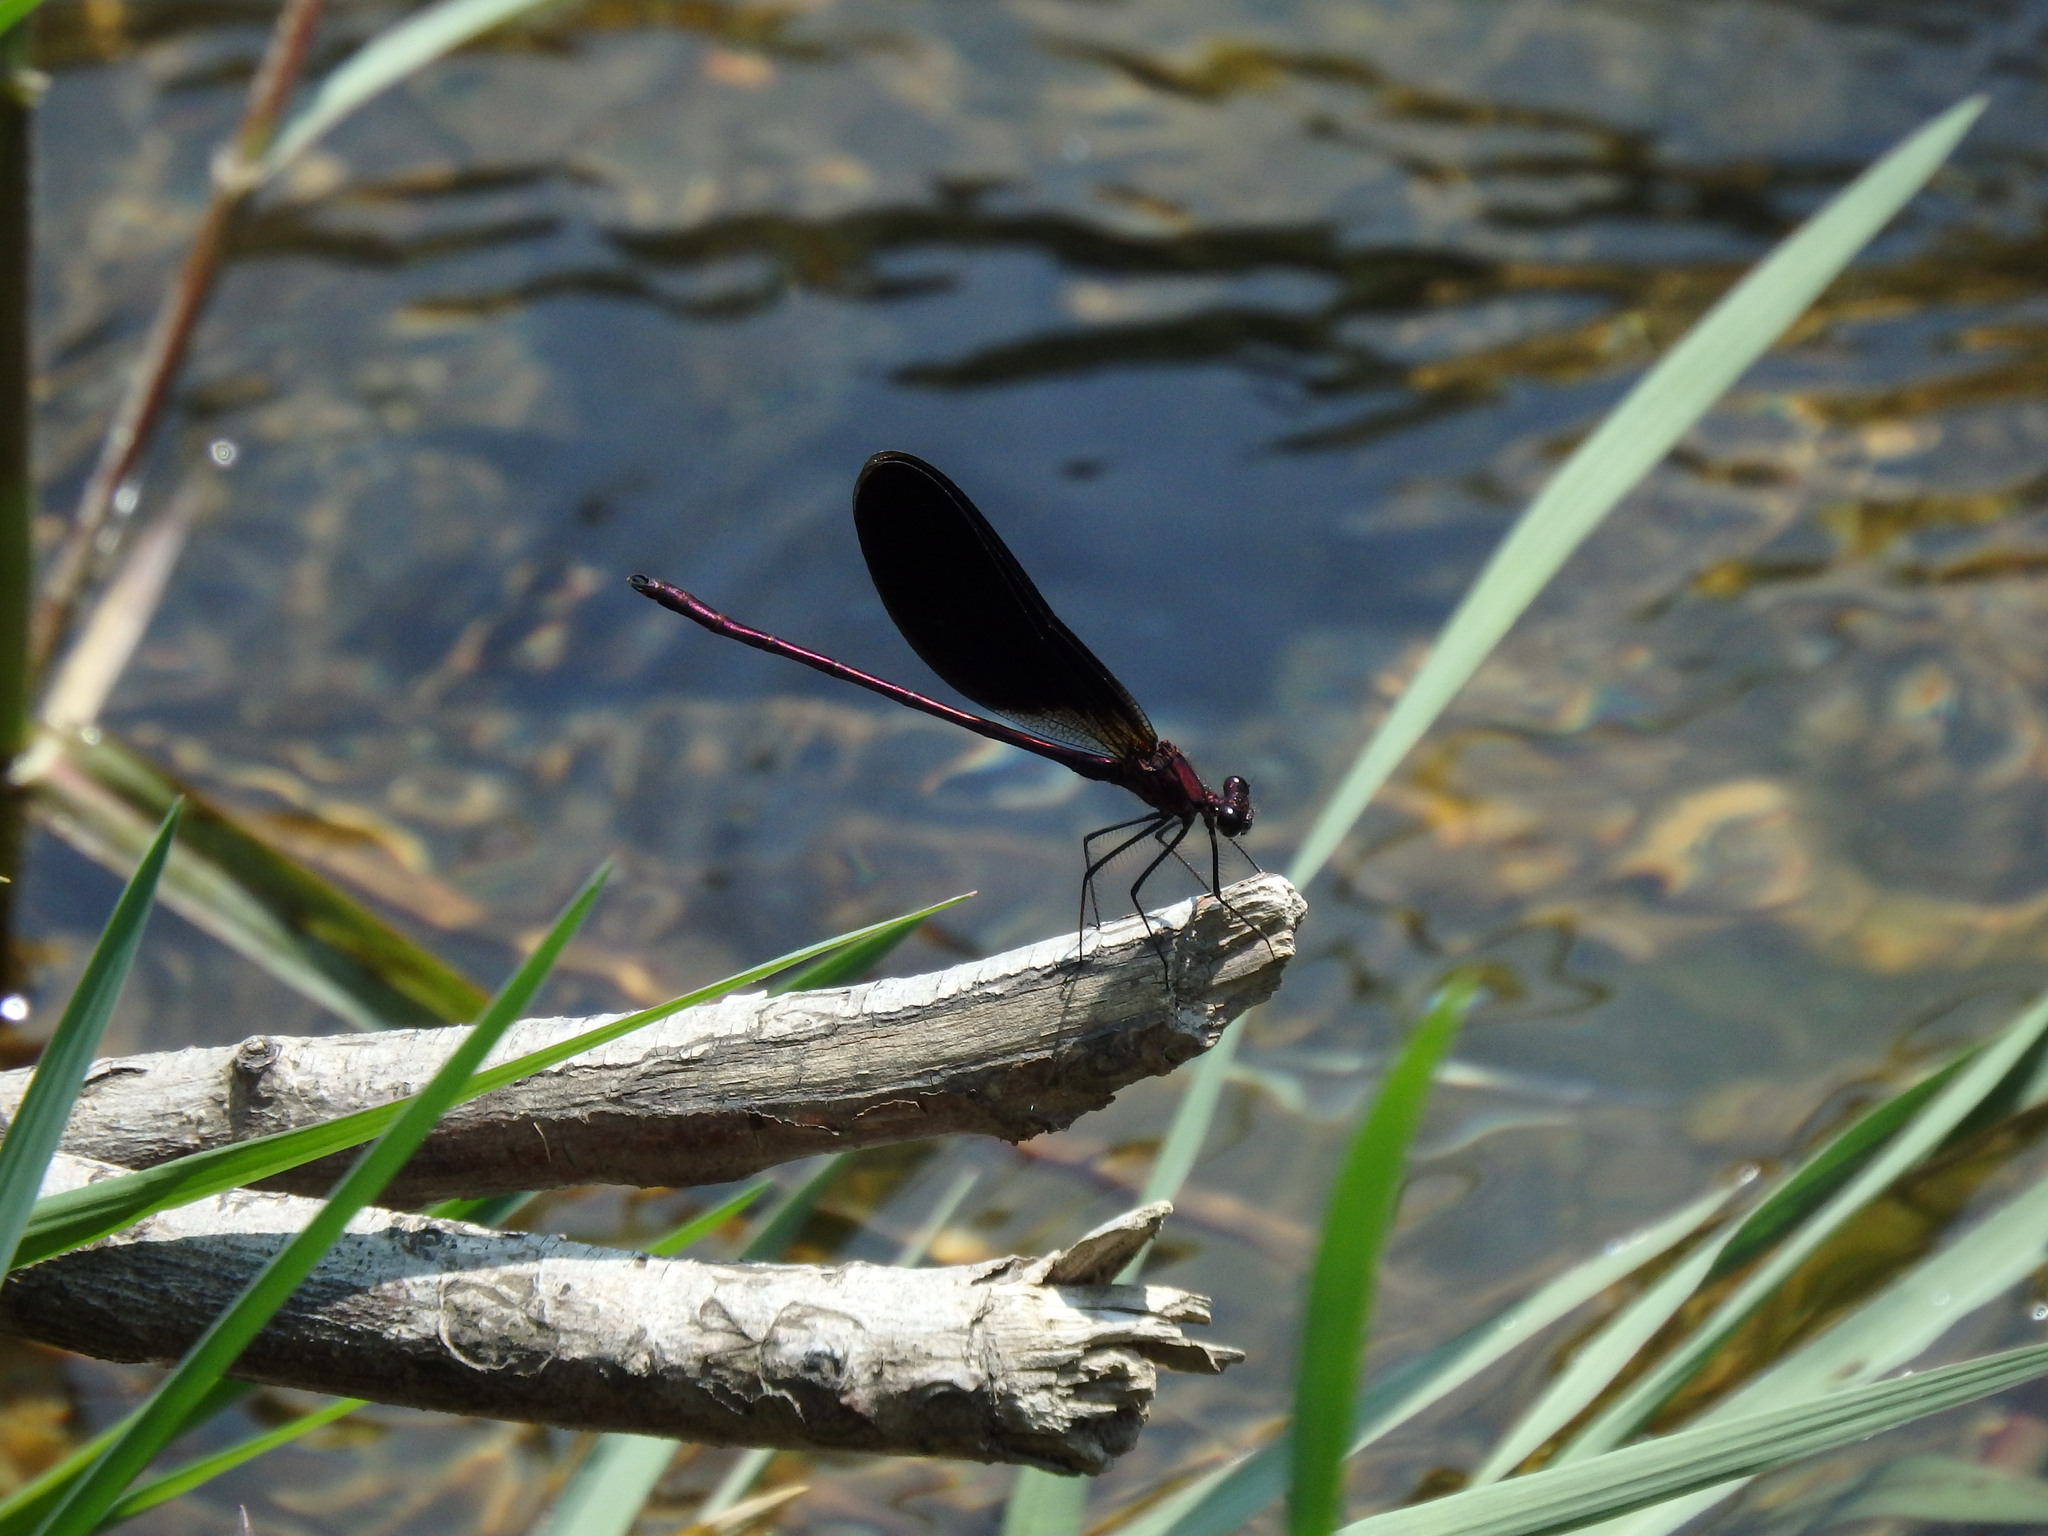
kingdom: Animalia
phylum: Arthropoda
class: Insecta
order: Odonata
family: Calopterygidae
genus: Calopteryx
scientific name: Calopteryx haemorrhoidalis
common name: Copper demoiselle
